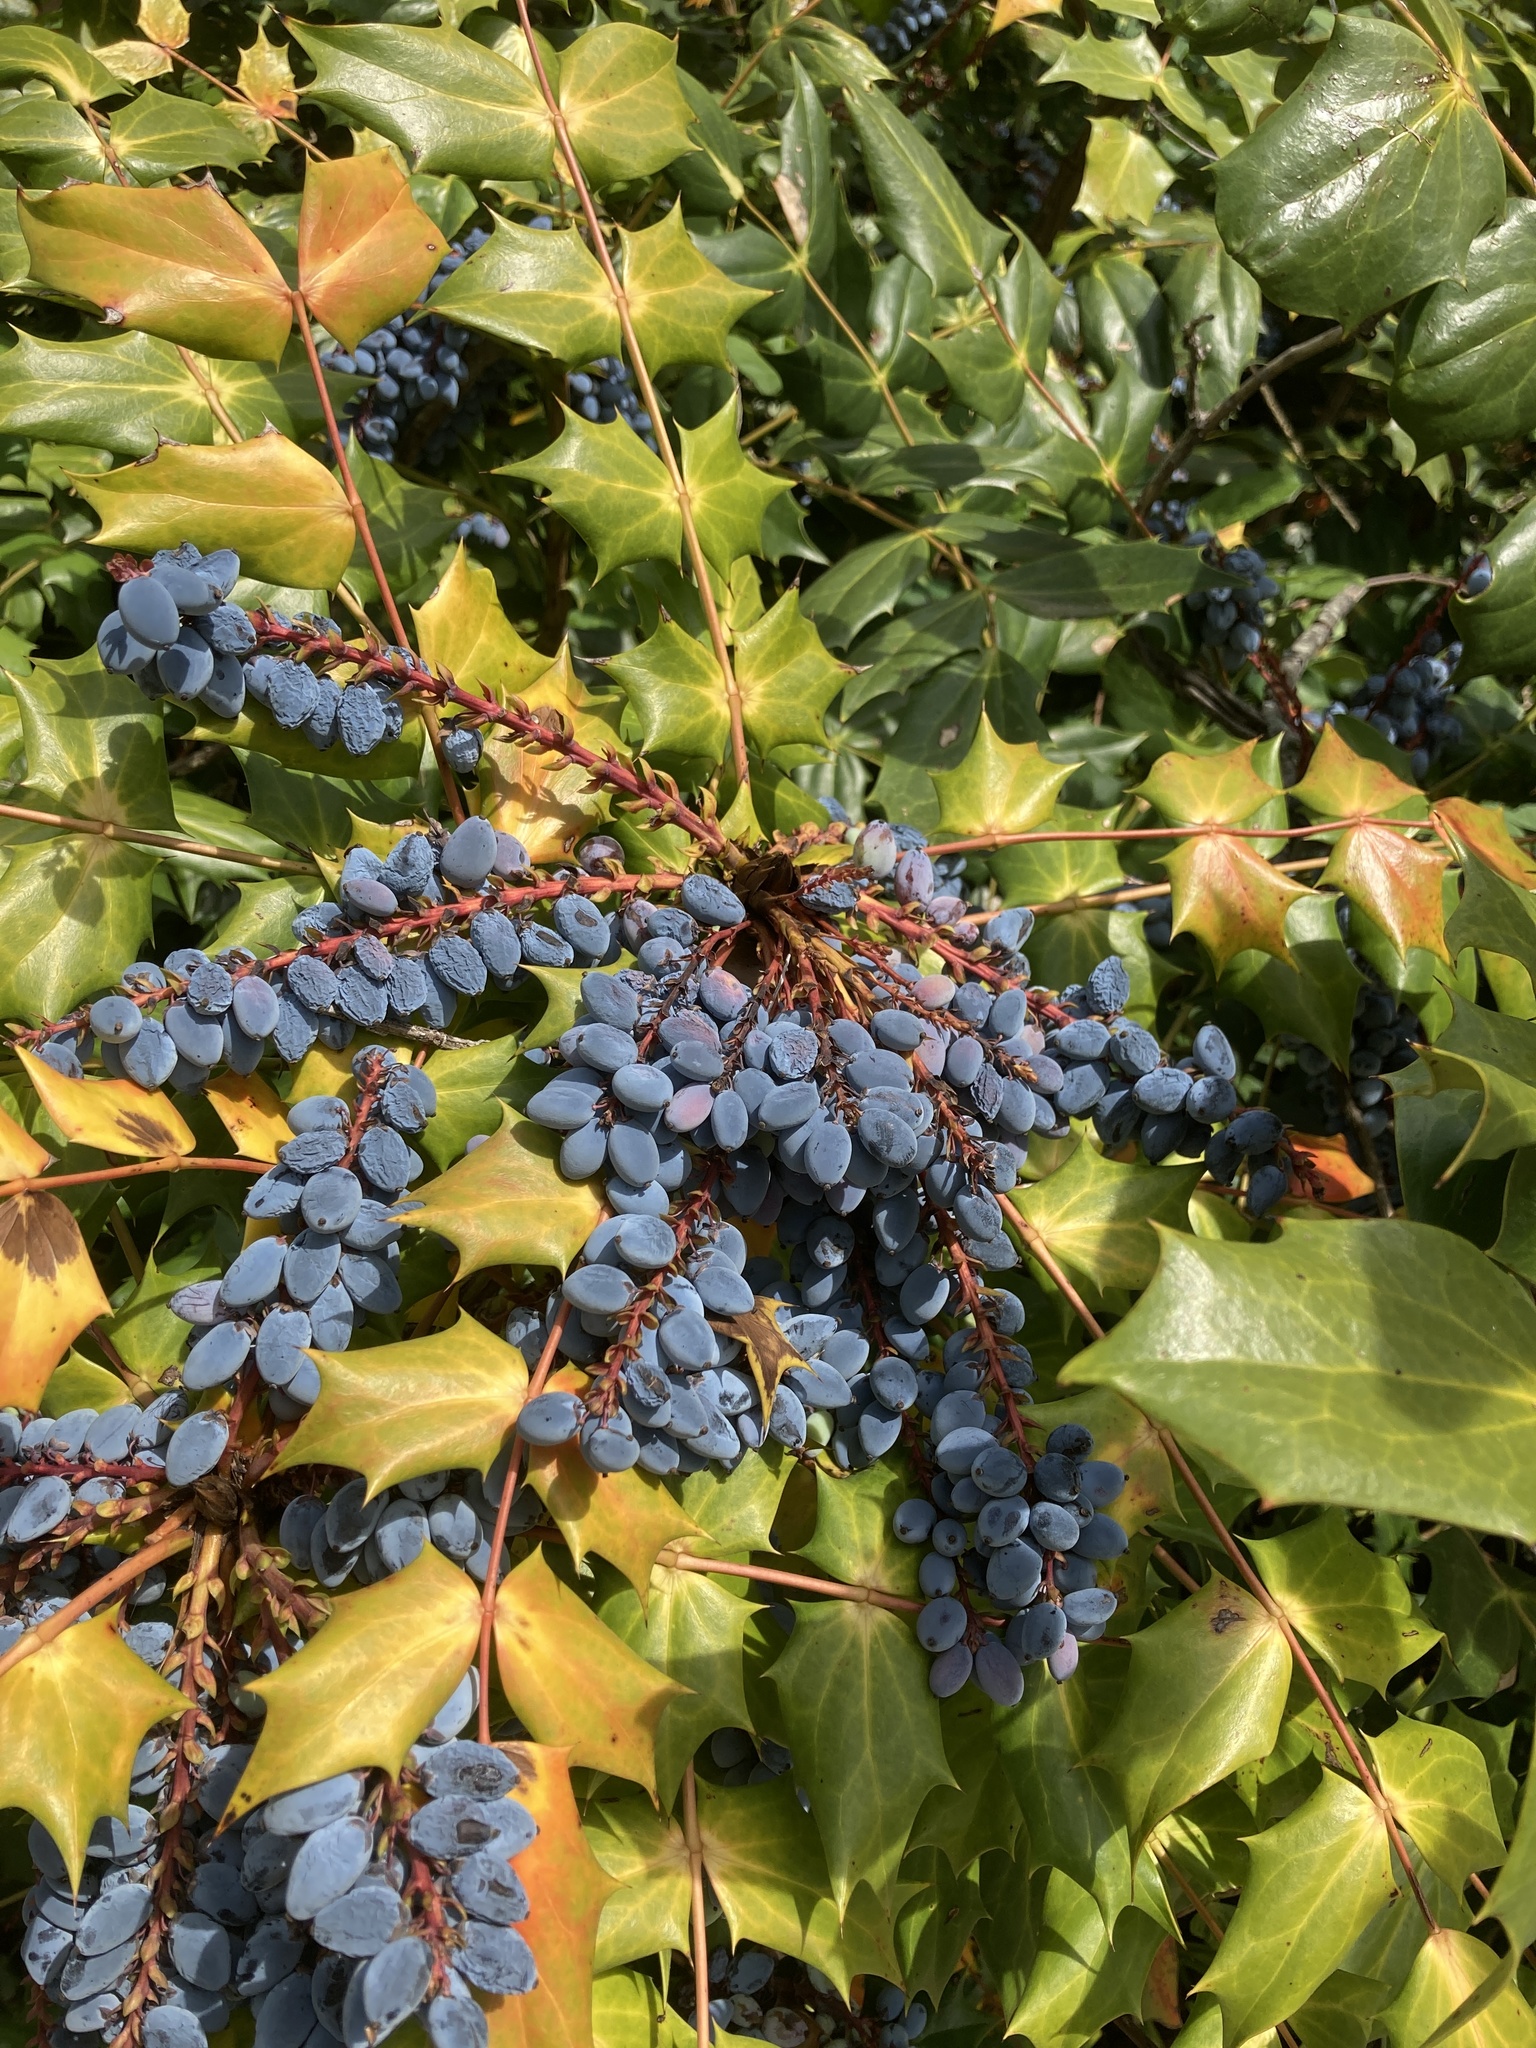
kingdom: Plantae
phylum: Tracheophyta
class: Magnoliopsida
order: Ranunculales
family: Berberidaceae
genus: Mahonia
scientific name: Mahonia bealei
